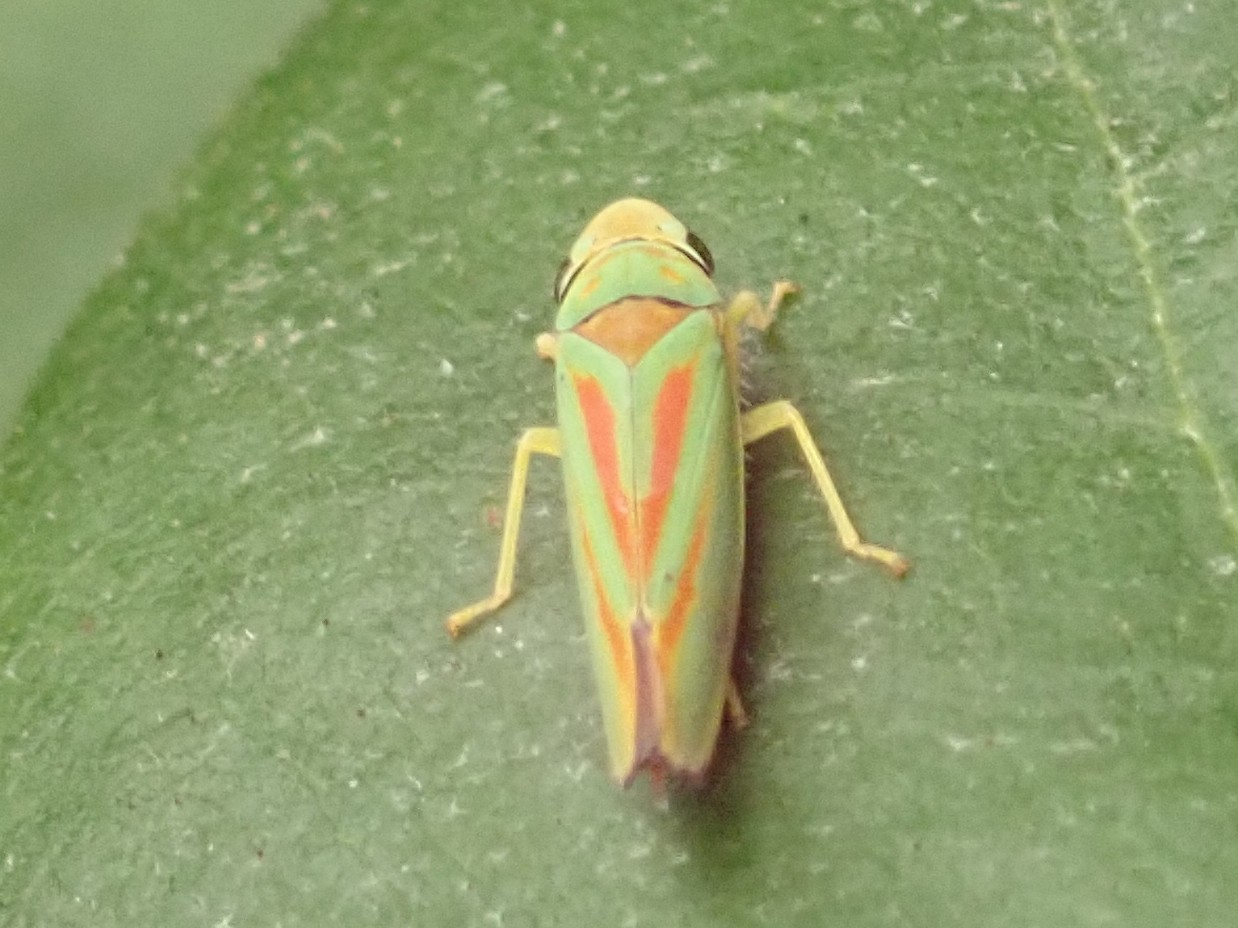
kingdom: Animalia
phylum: Arthropoda
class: Insecta
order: Hemiptera
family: Cicadellidae
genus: Graphocephala
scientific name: Graphocephala fennahi
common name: Rhododendron leafhopper
